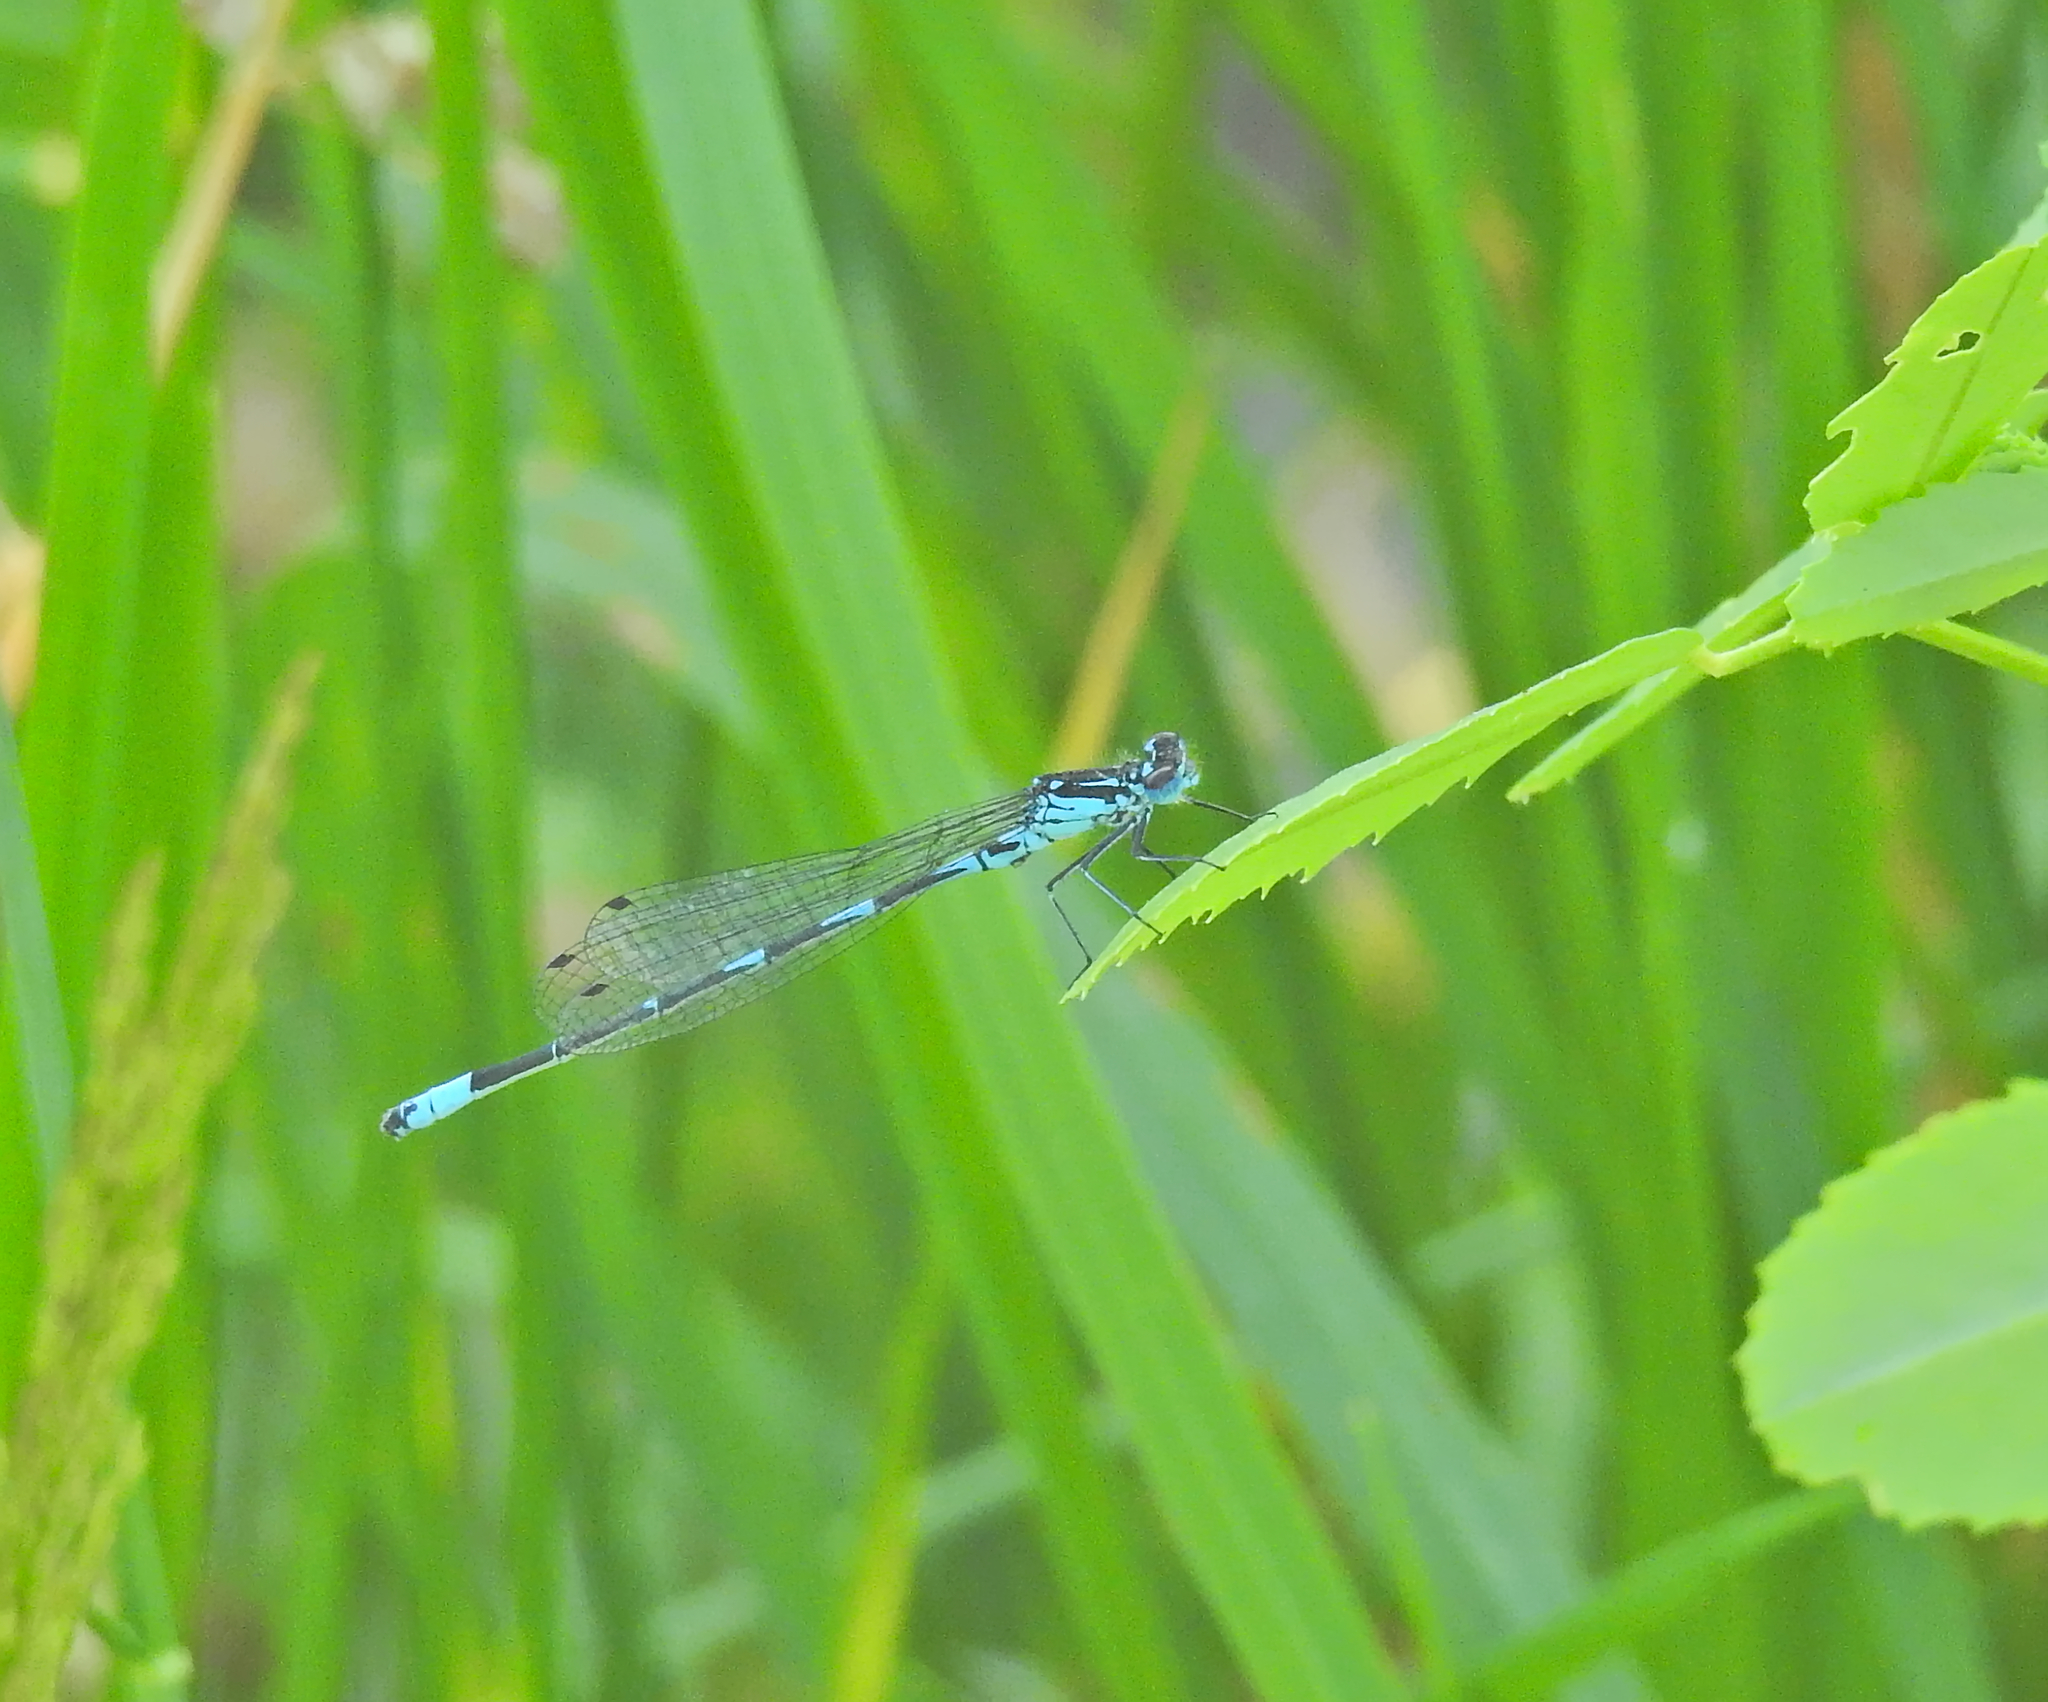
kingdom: Animalia
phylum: Arthropoda
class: Insecta
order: Odonata
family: Coenagrionidae
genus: Coenagrion
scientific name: Coenagrion pulchellum
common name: Variable bluet
